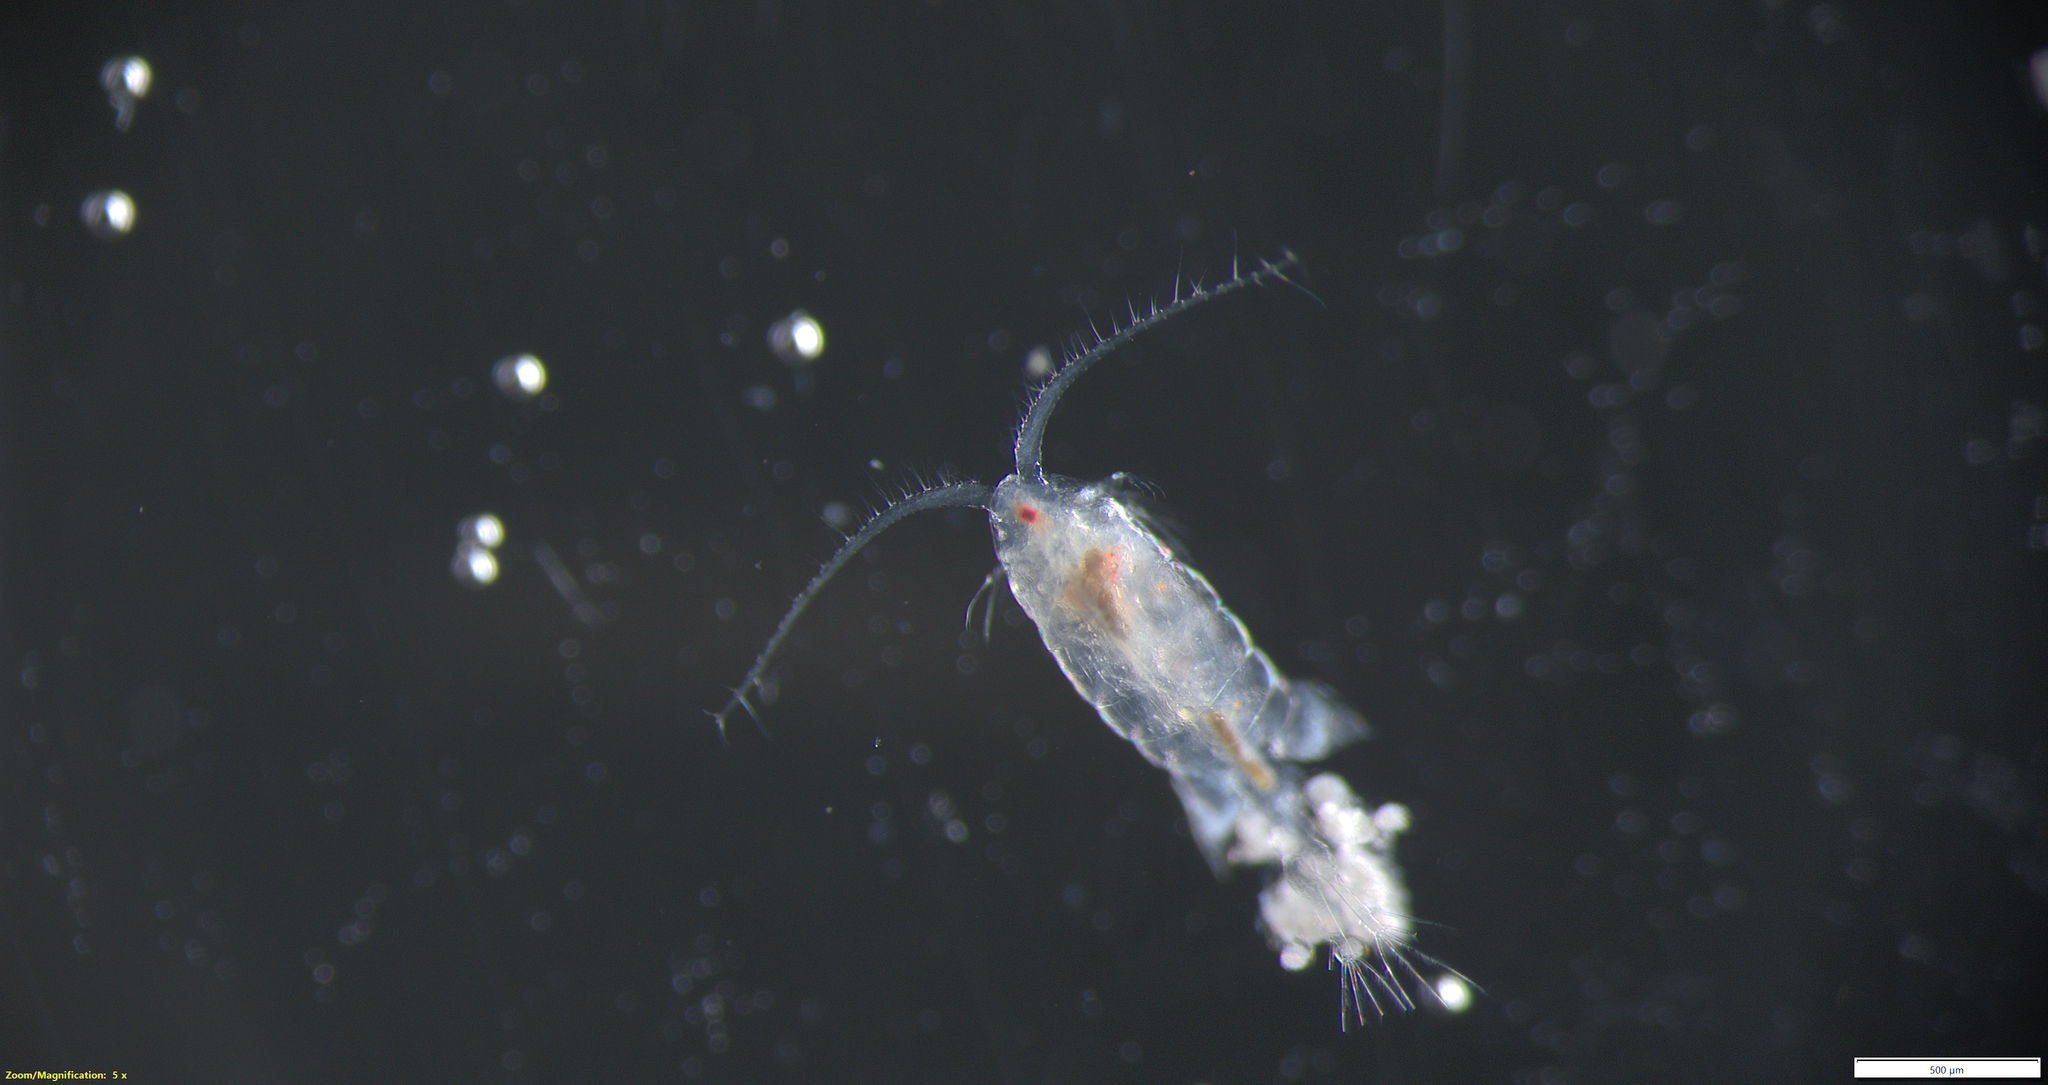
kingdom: Animalia
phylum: Arthropoda
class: Copepoda
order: Calanoida
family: Temoridae
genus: Eurytemora
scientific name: Eurytemora herdmani
